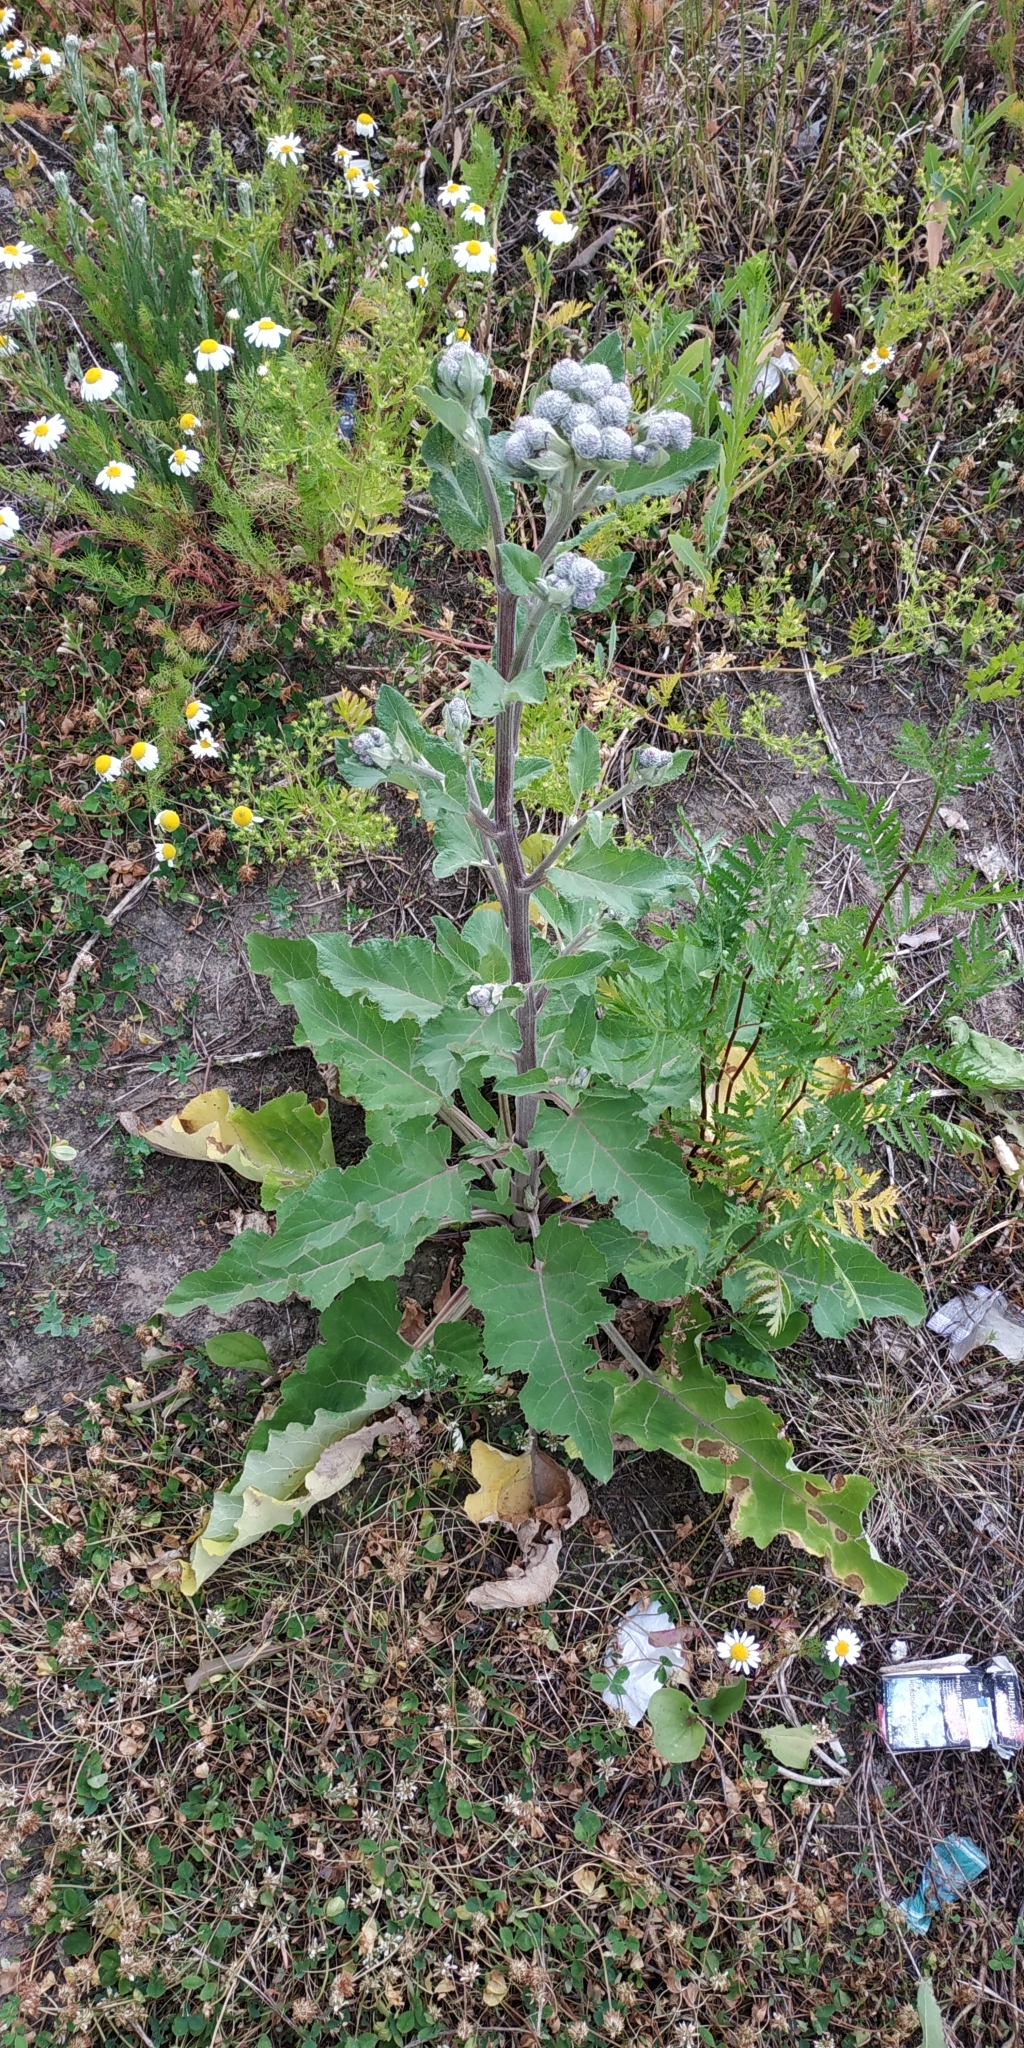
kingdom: Plantae
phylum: Tracheophyta
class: Magnoliopsida
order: Asterales
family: Asteraceae
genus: Arctium
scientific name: Arctium tomentosum
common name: Woolly burdock
